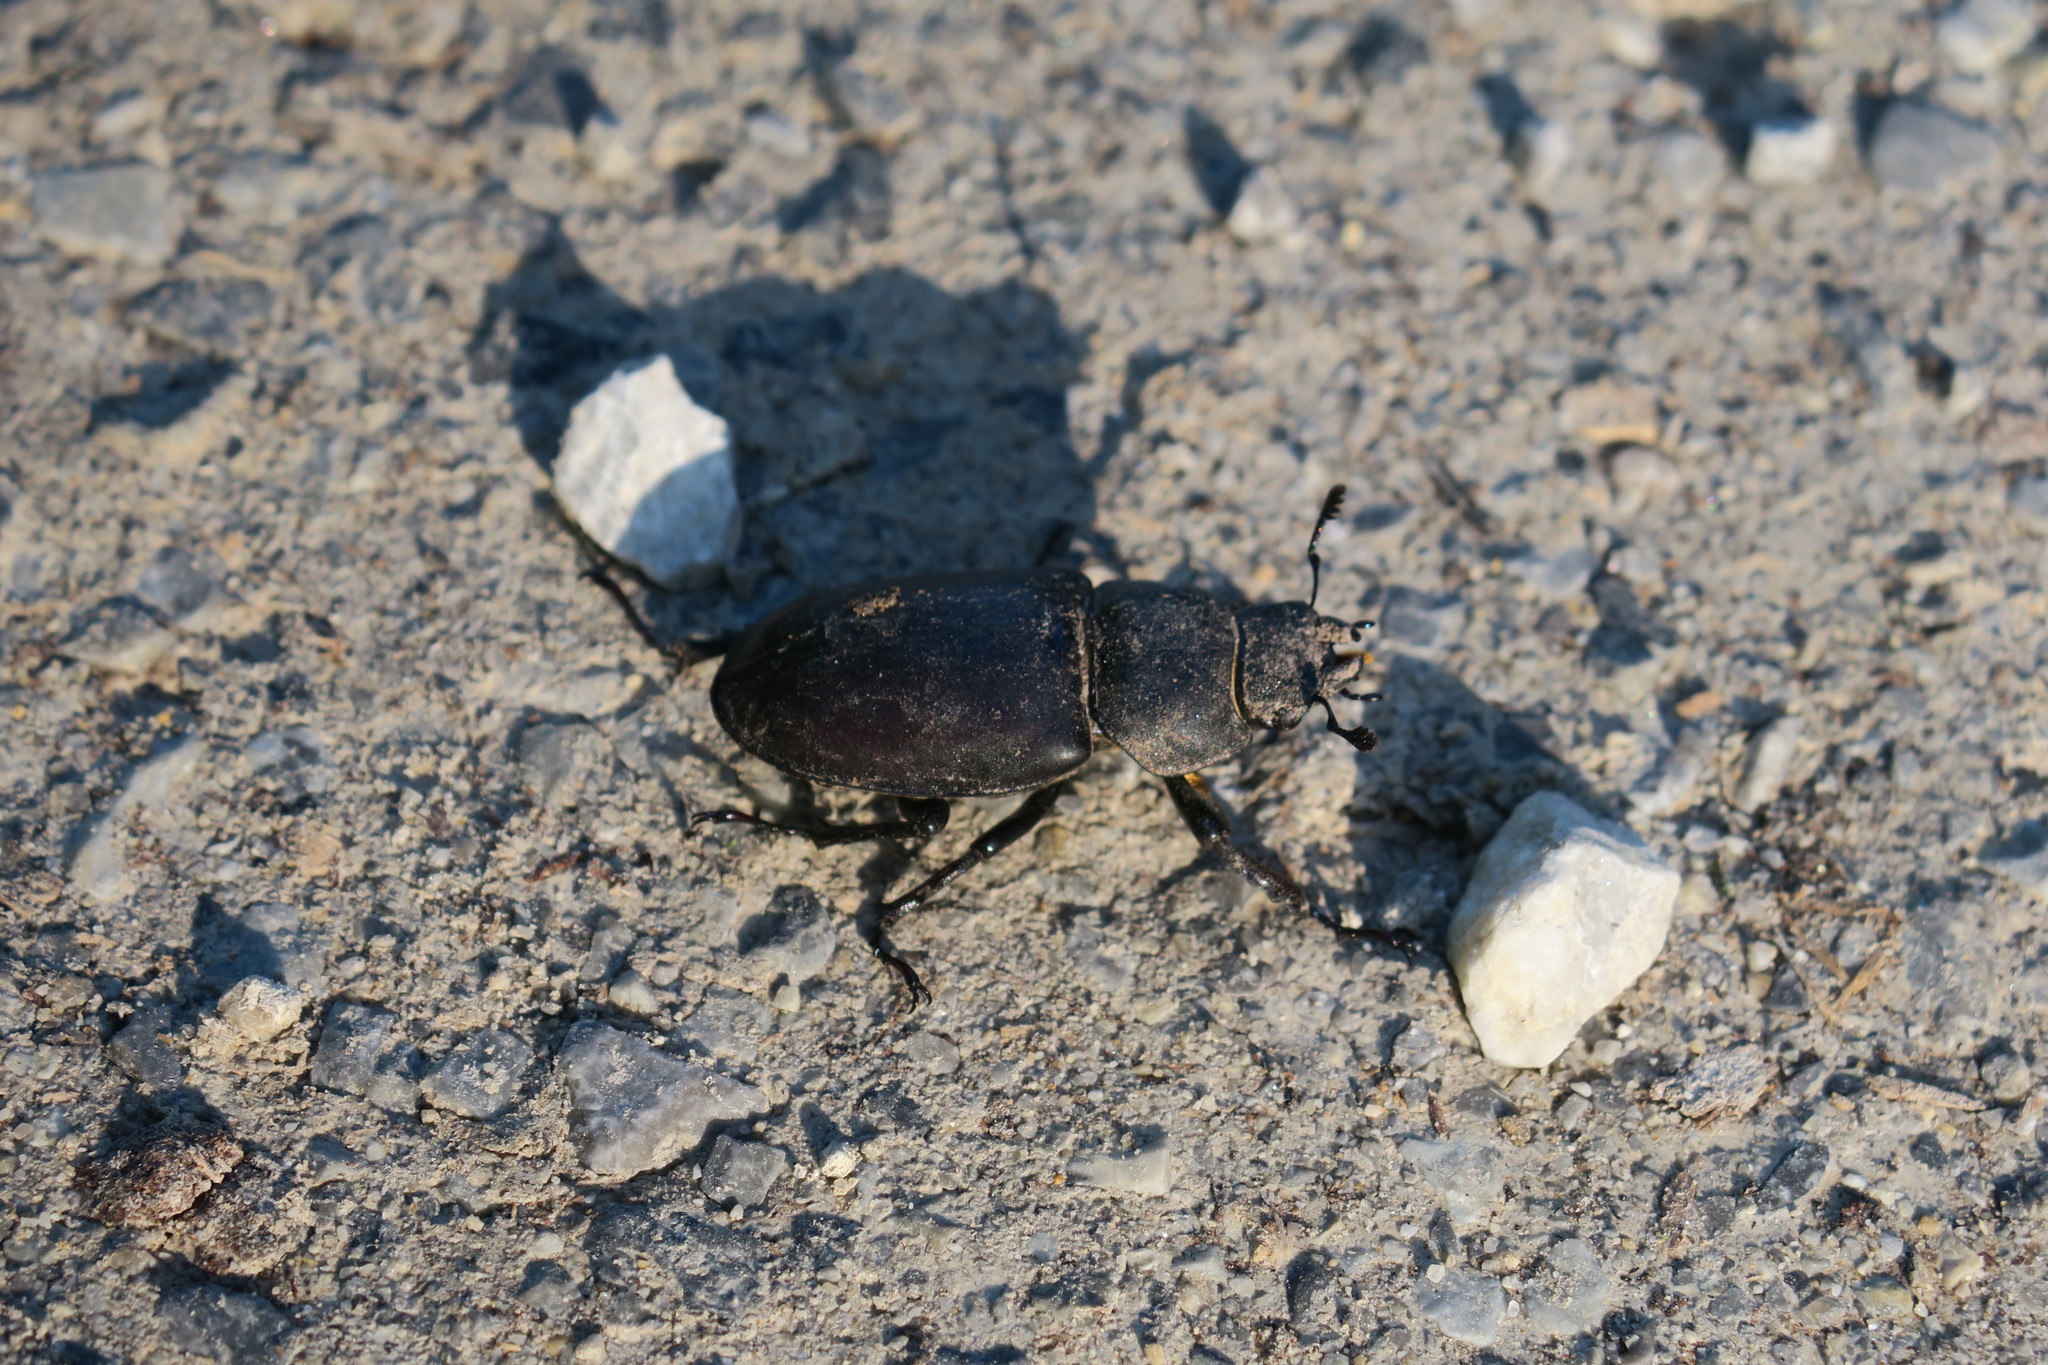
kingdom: Animalia
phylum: Arthropoda
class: Insecta
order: Coleoptera
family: Lucanidae
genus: Lucanus
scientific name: Lucanus cervus
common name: Stag beetle
